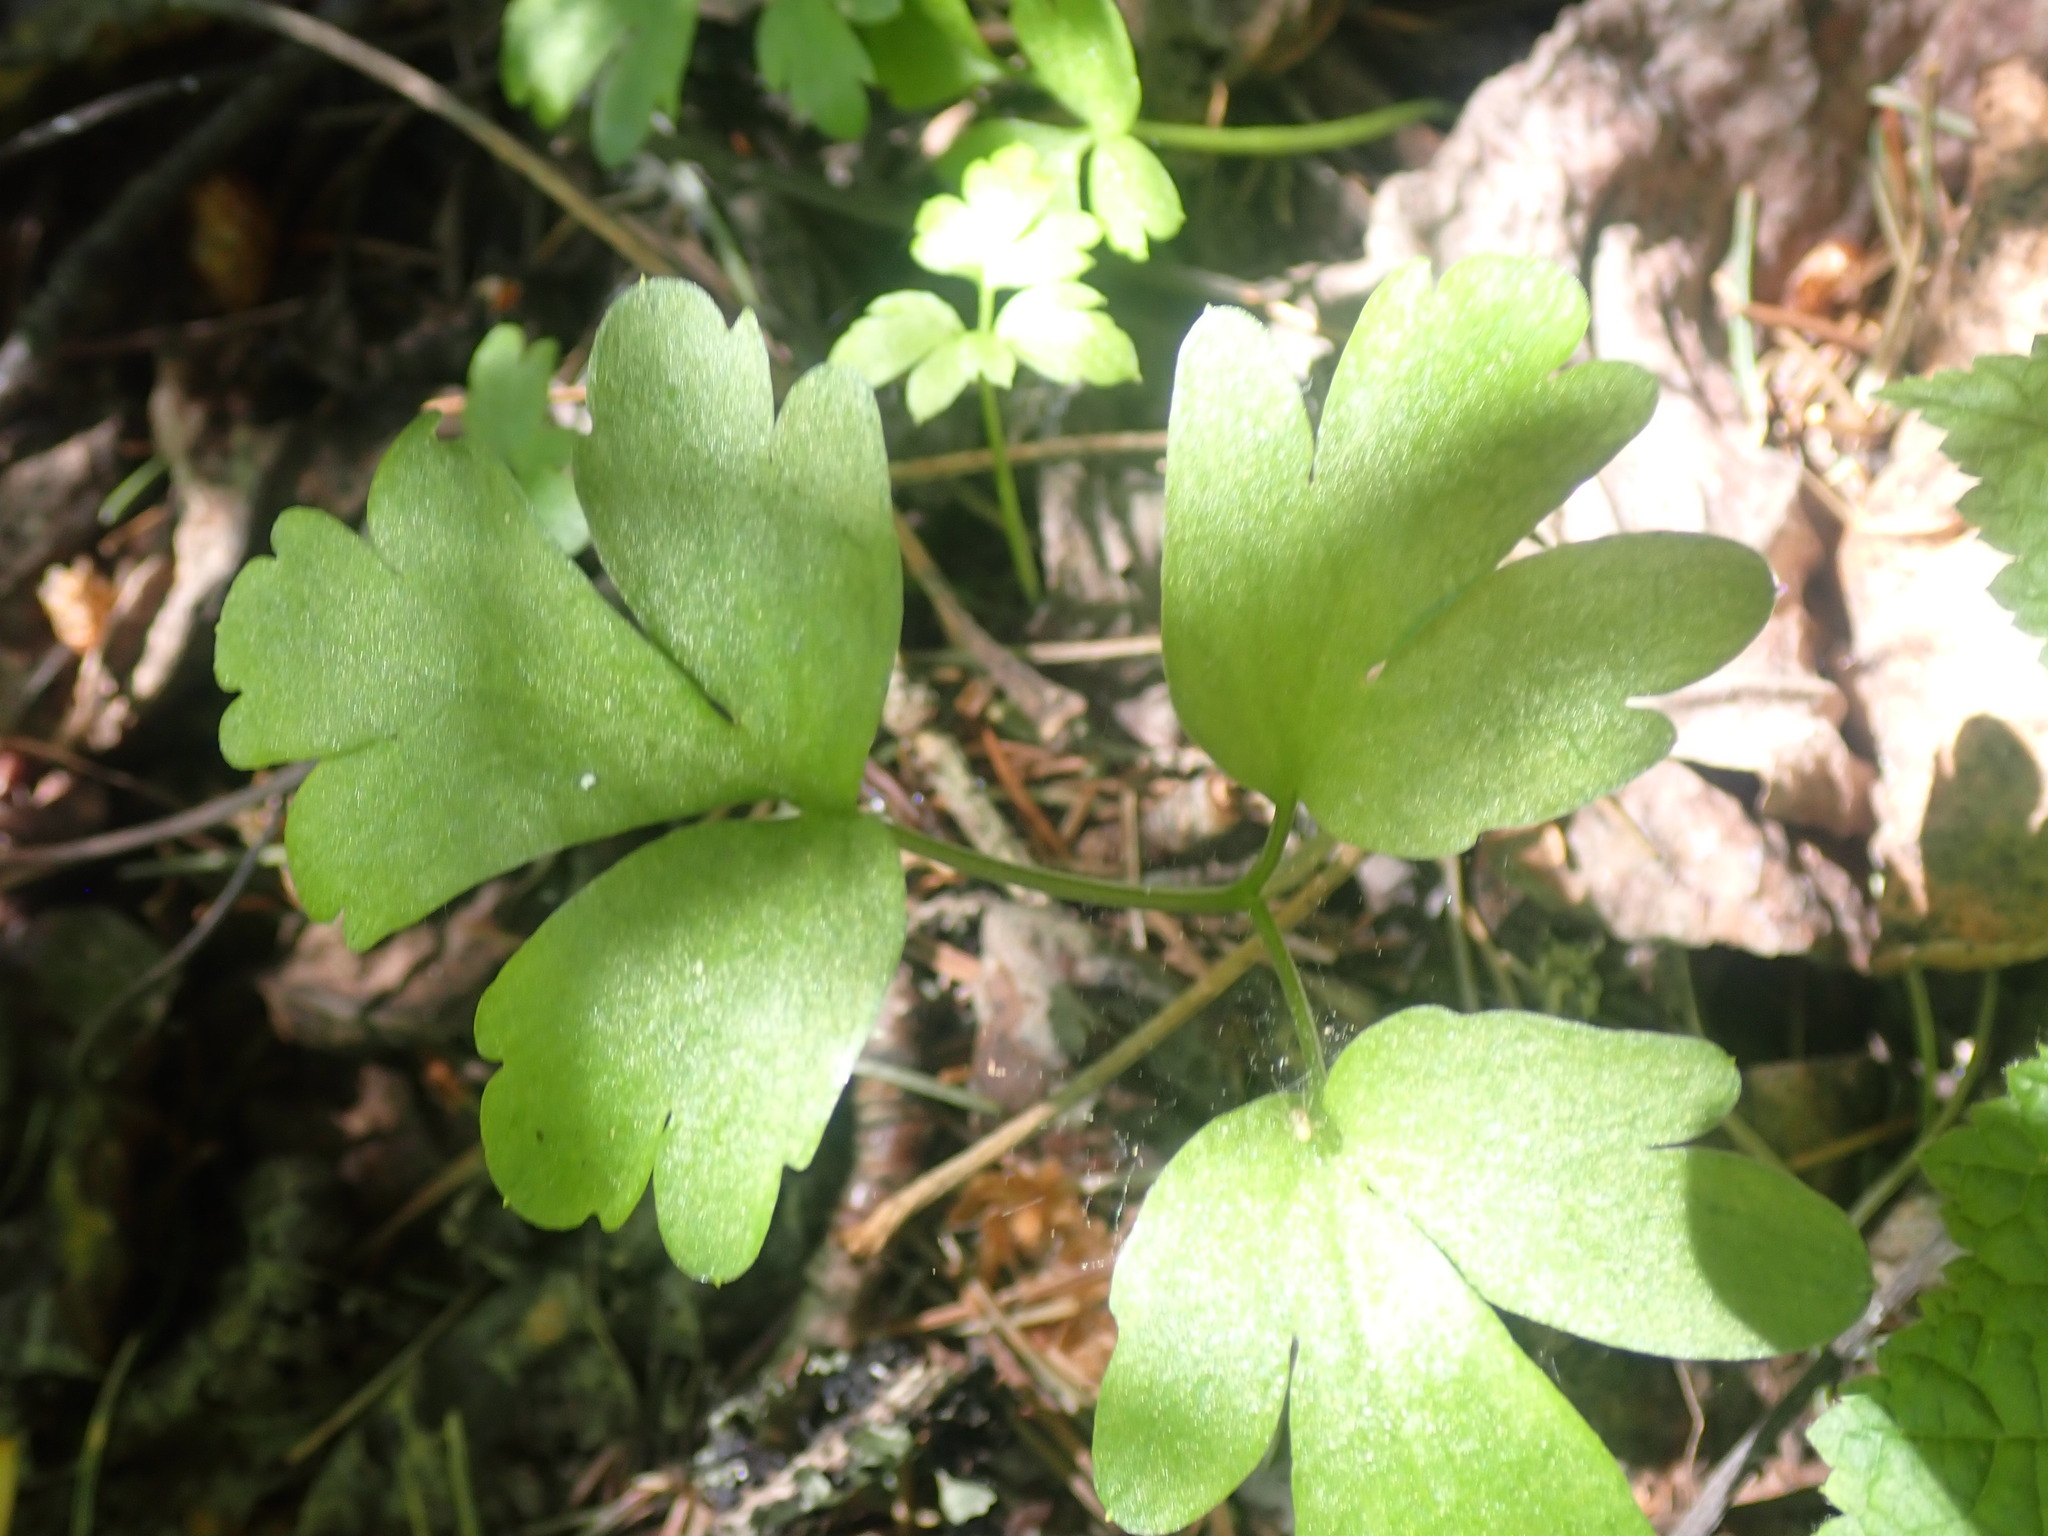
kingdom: Plantae
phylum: Tracheophyta
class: Magnoliopsida
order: Dipsacales
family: Viburnaceae
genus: Adoxa
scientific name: Adoxa moschatellina
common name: Moschatel
